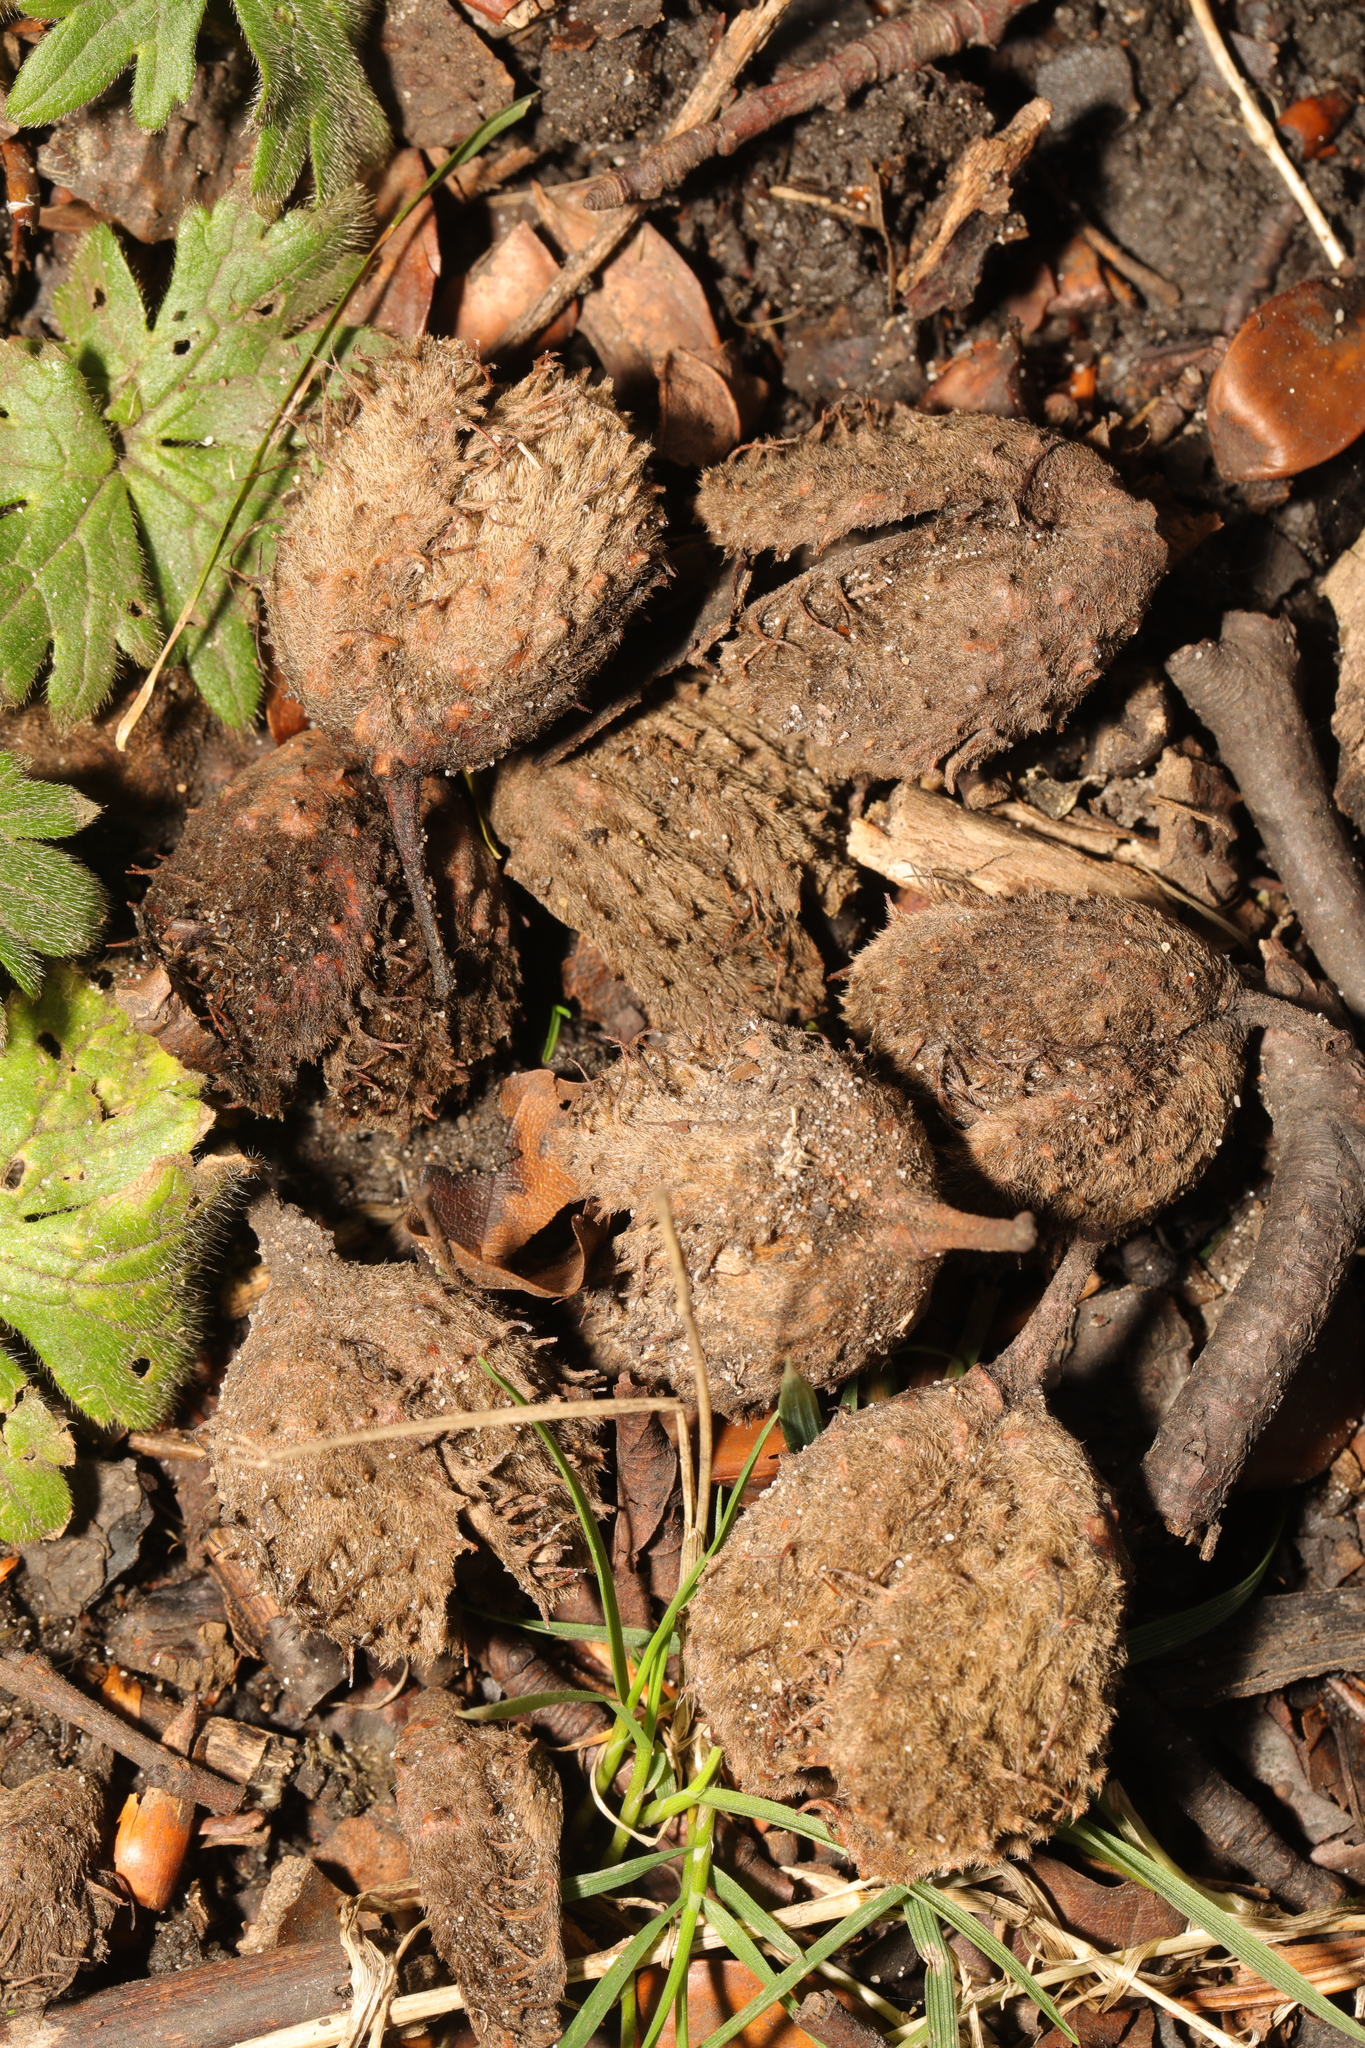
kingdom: Plantae
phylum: Tracheophyta
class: Magnoliopsida
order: Fagales
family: Fagaceae
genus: Fagus
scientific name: Fagus sylvatica
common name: Beech
